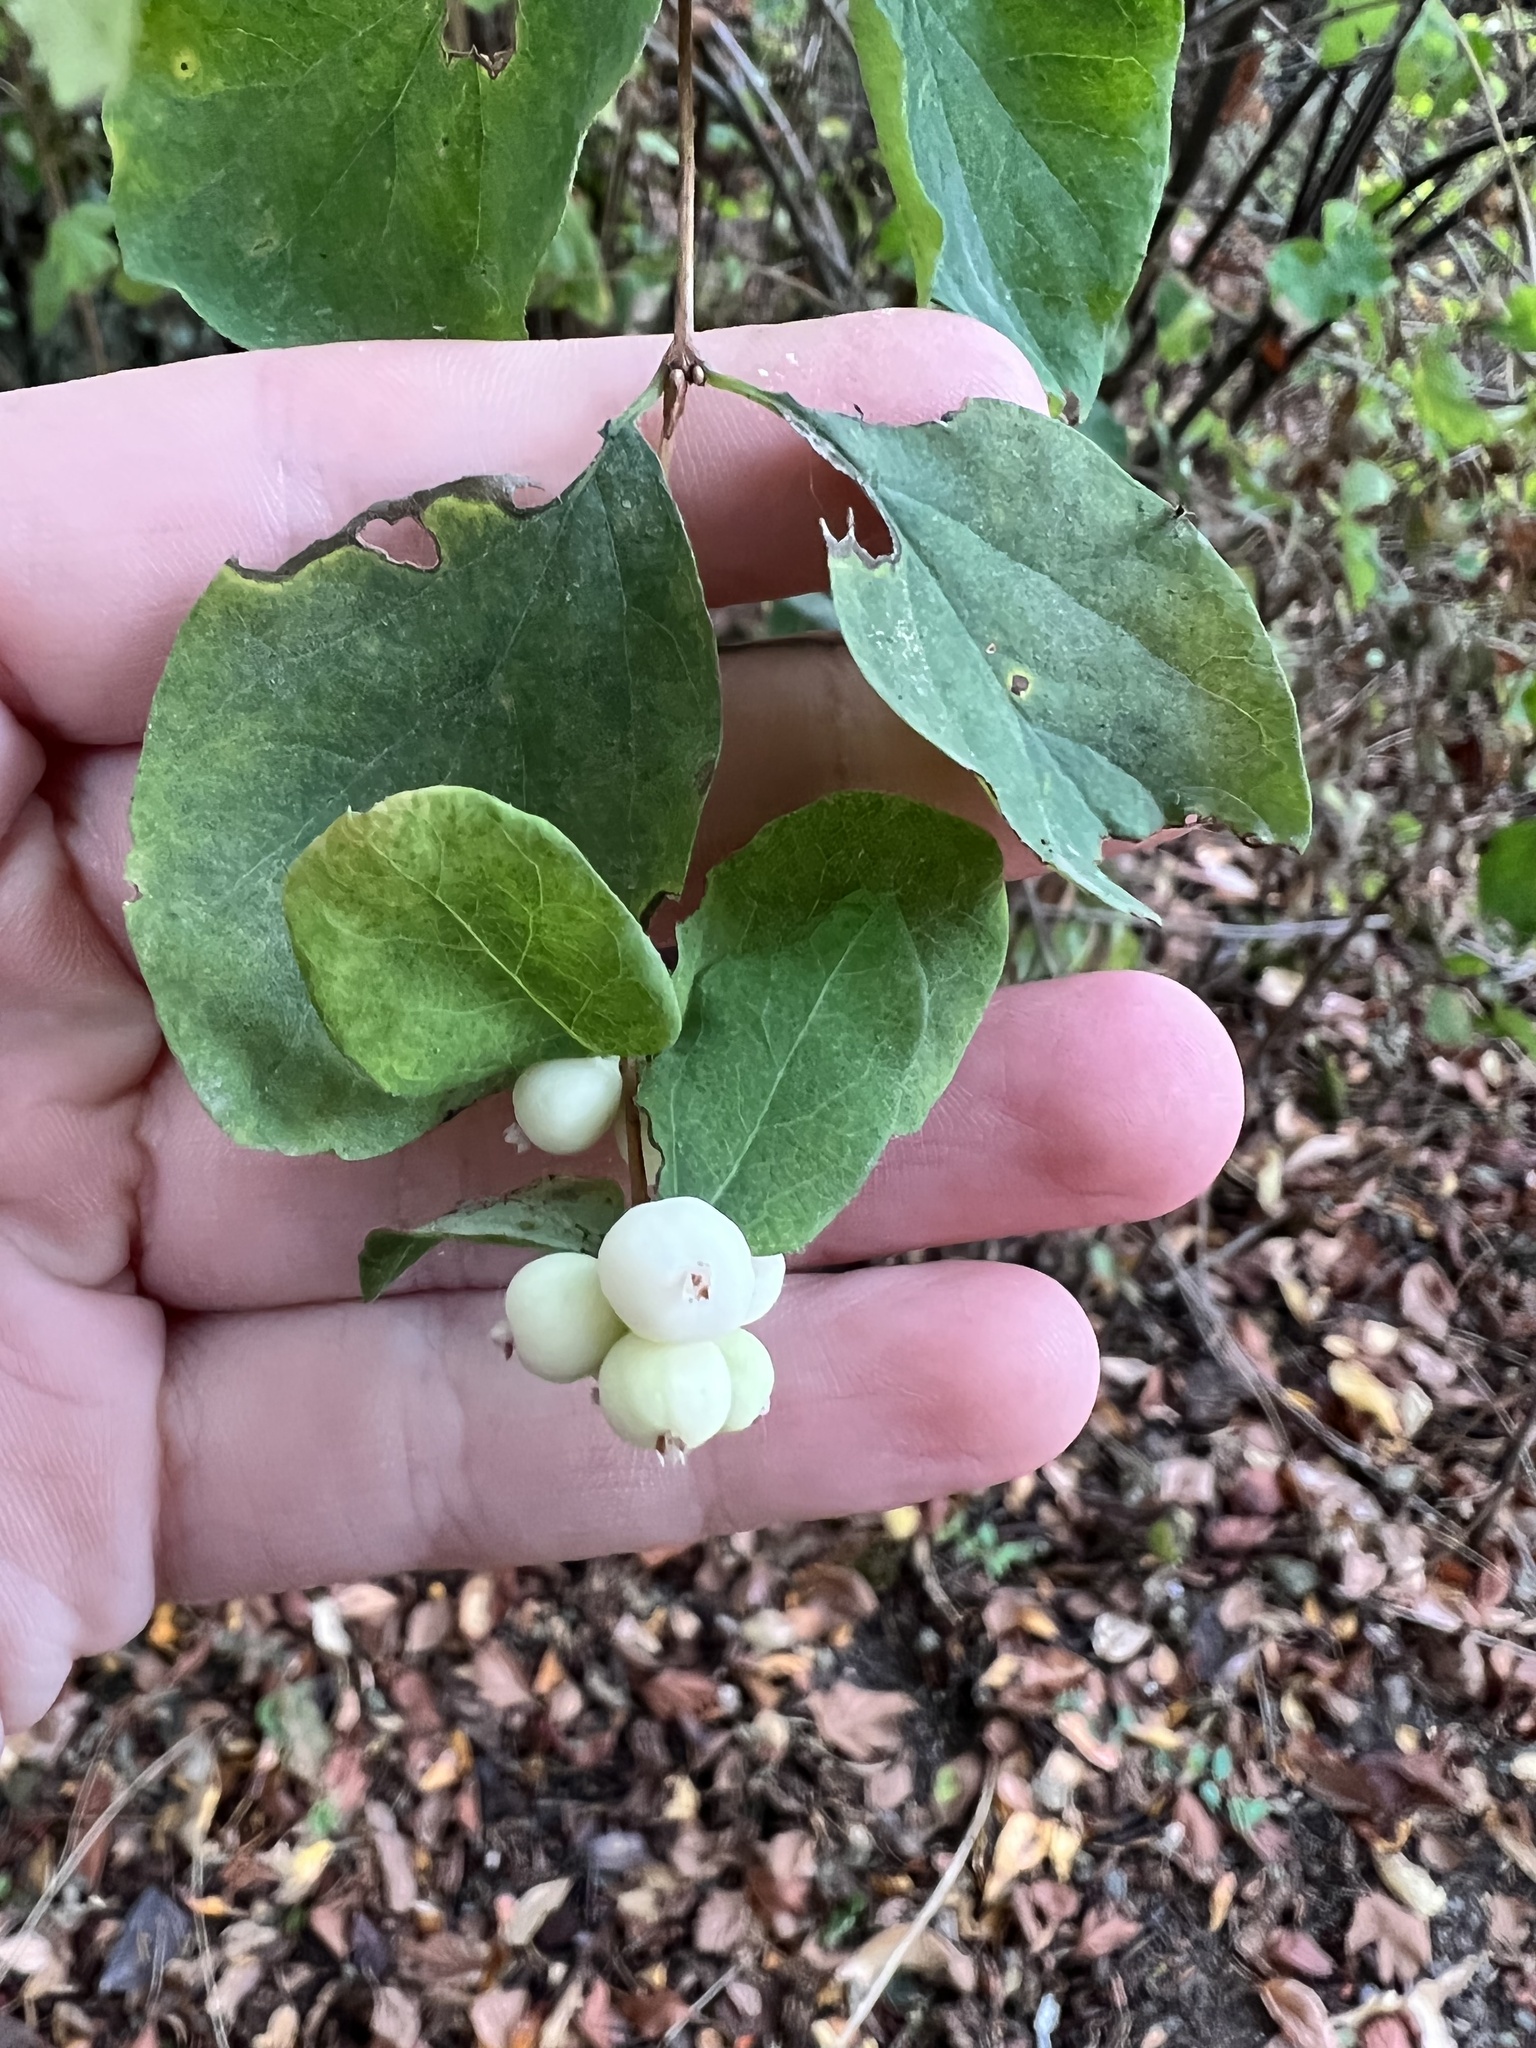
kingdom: Plantae
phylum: Tracheophyta
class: Magnoliopsida
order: Dipsacales
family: Caprifoliaceae
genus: Symphoricarpos
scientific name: Symphoricarpos albus
